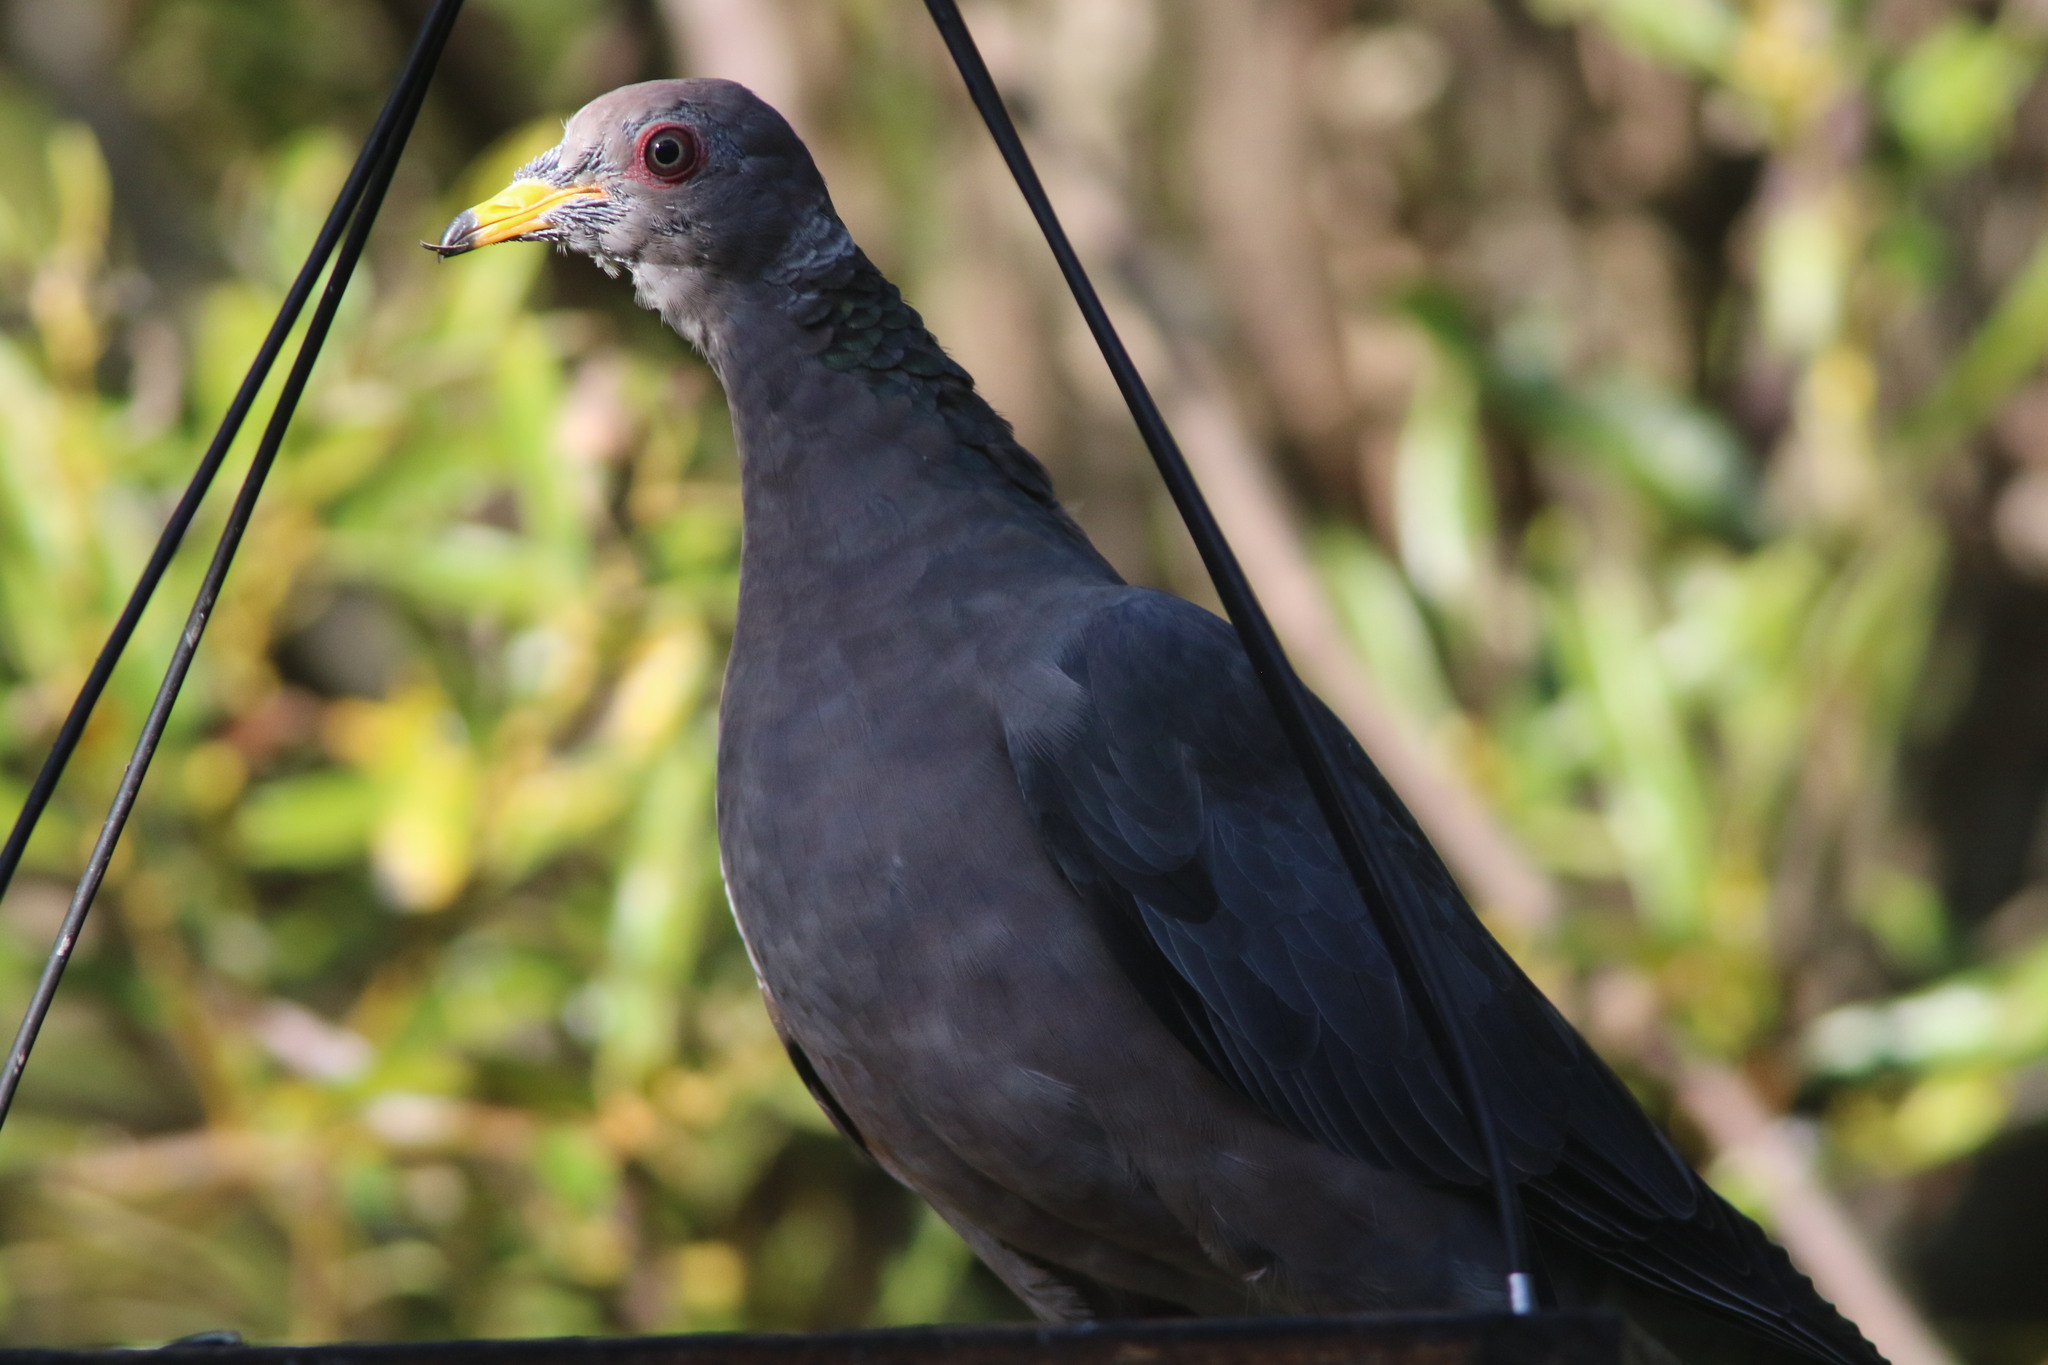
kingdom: Animalia
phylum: Chordata
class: Aves
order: Columbiformes
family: Columbidae
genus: Patagioenas
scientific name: Patagioenas fasciata
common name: Band-tailed pigeon
